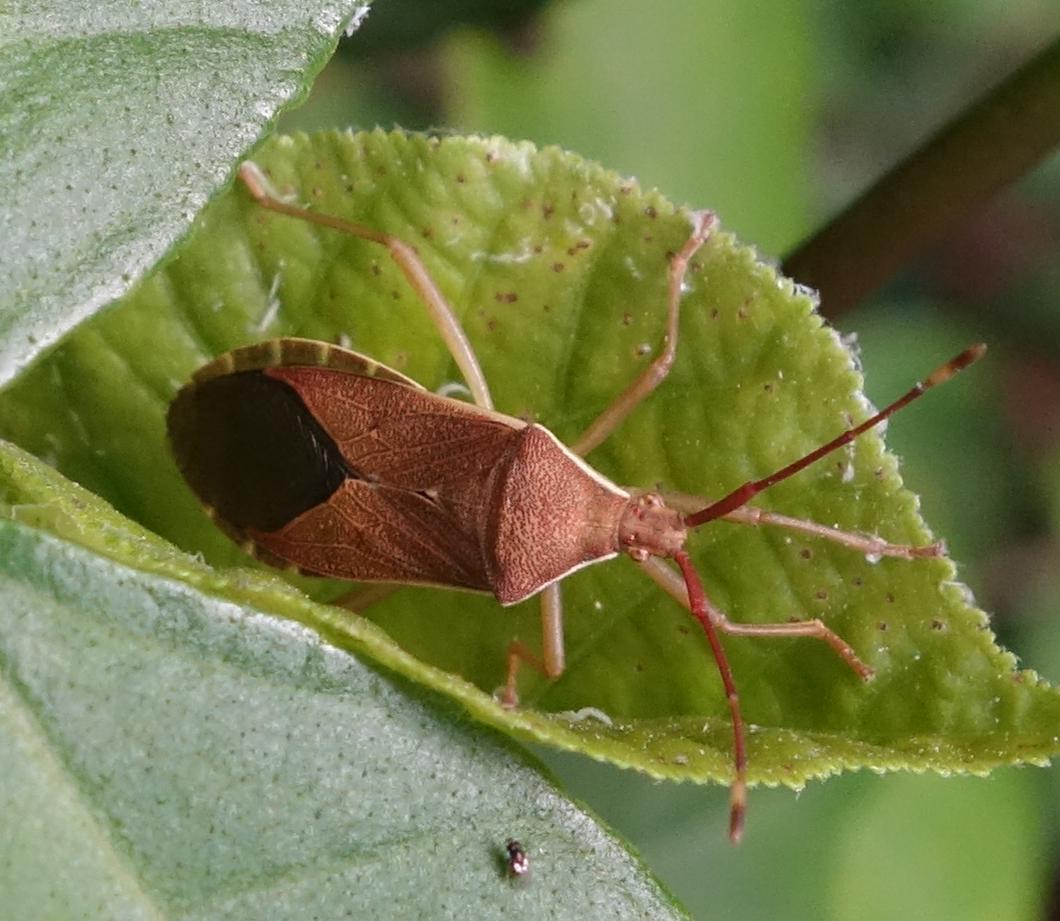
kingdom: Animalia
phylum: Arthropoda
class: Insecta
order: Hemiptera
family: Coreidae
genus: Homoeocerus
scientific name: Homoeocerus unipunctatus
